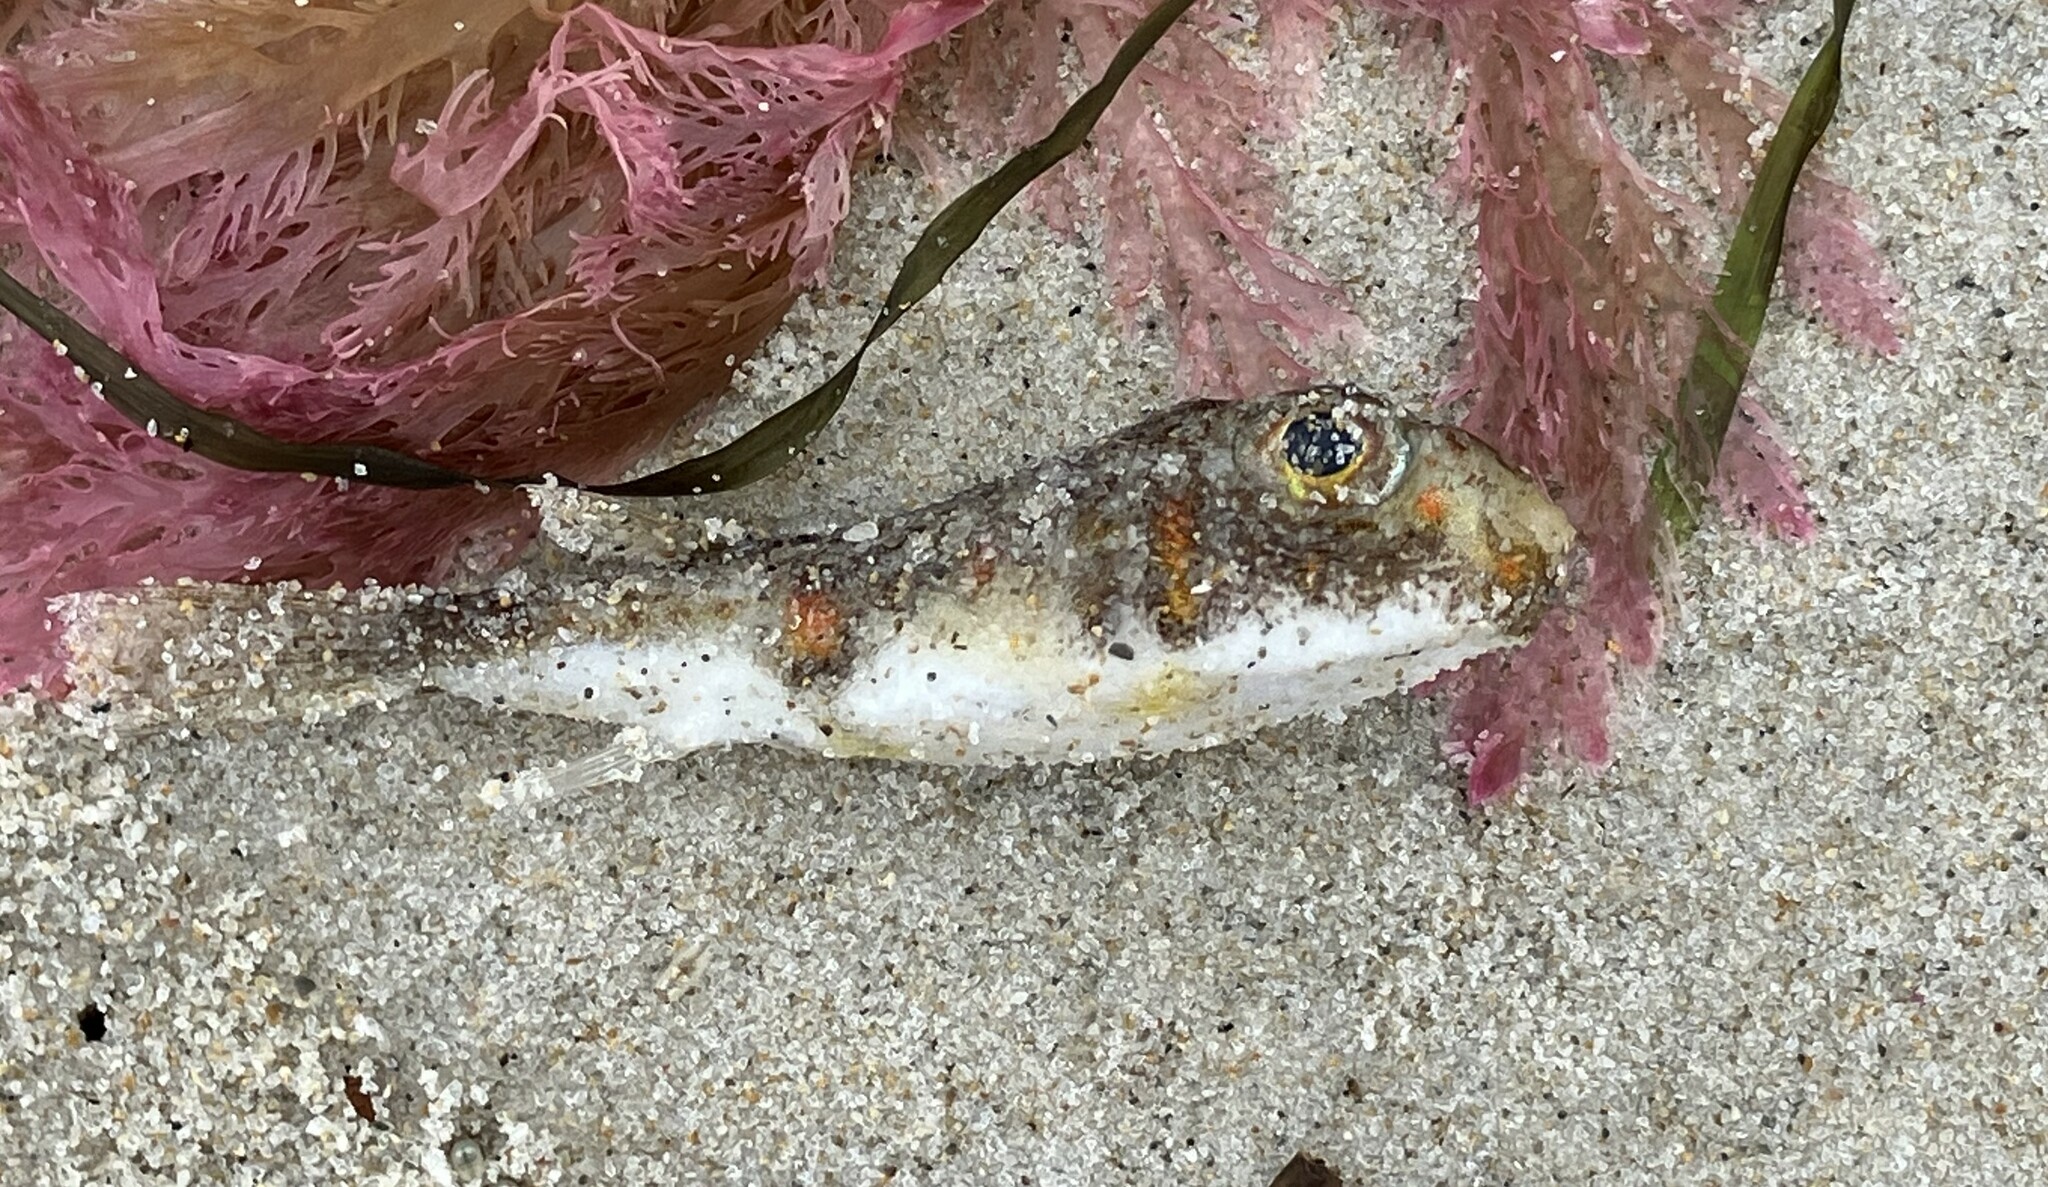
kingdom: Animalia
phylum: Chordata
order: Tetraodontiformes
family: Tetraodontidae
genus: Polyspina
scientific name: Polyspina piosae
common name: Orange-barred pufferfish
